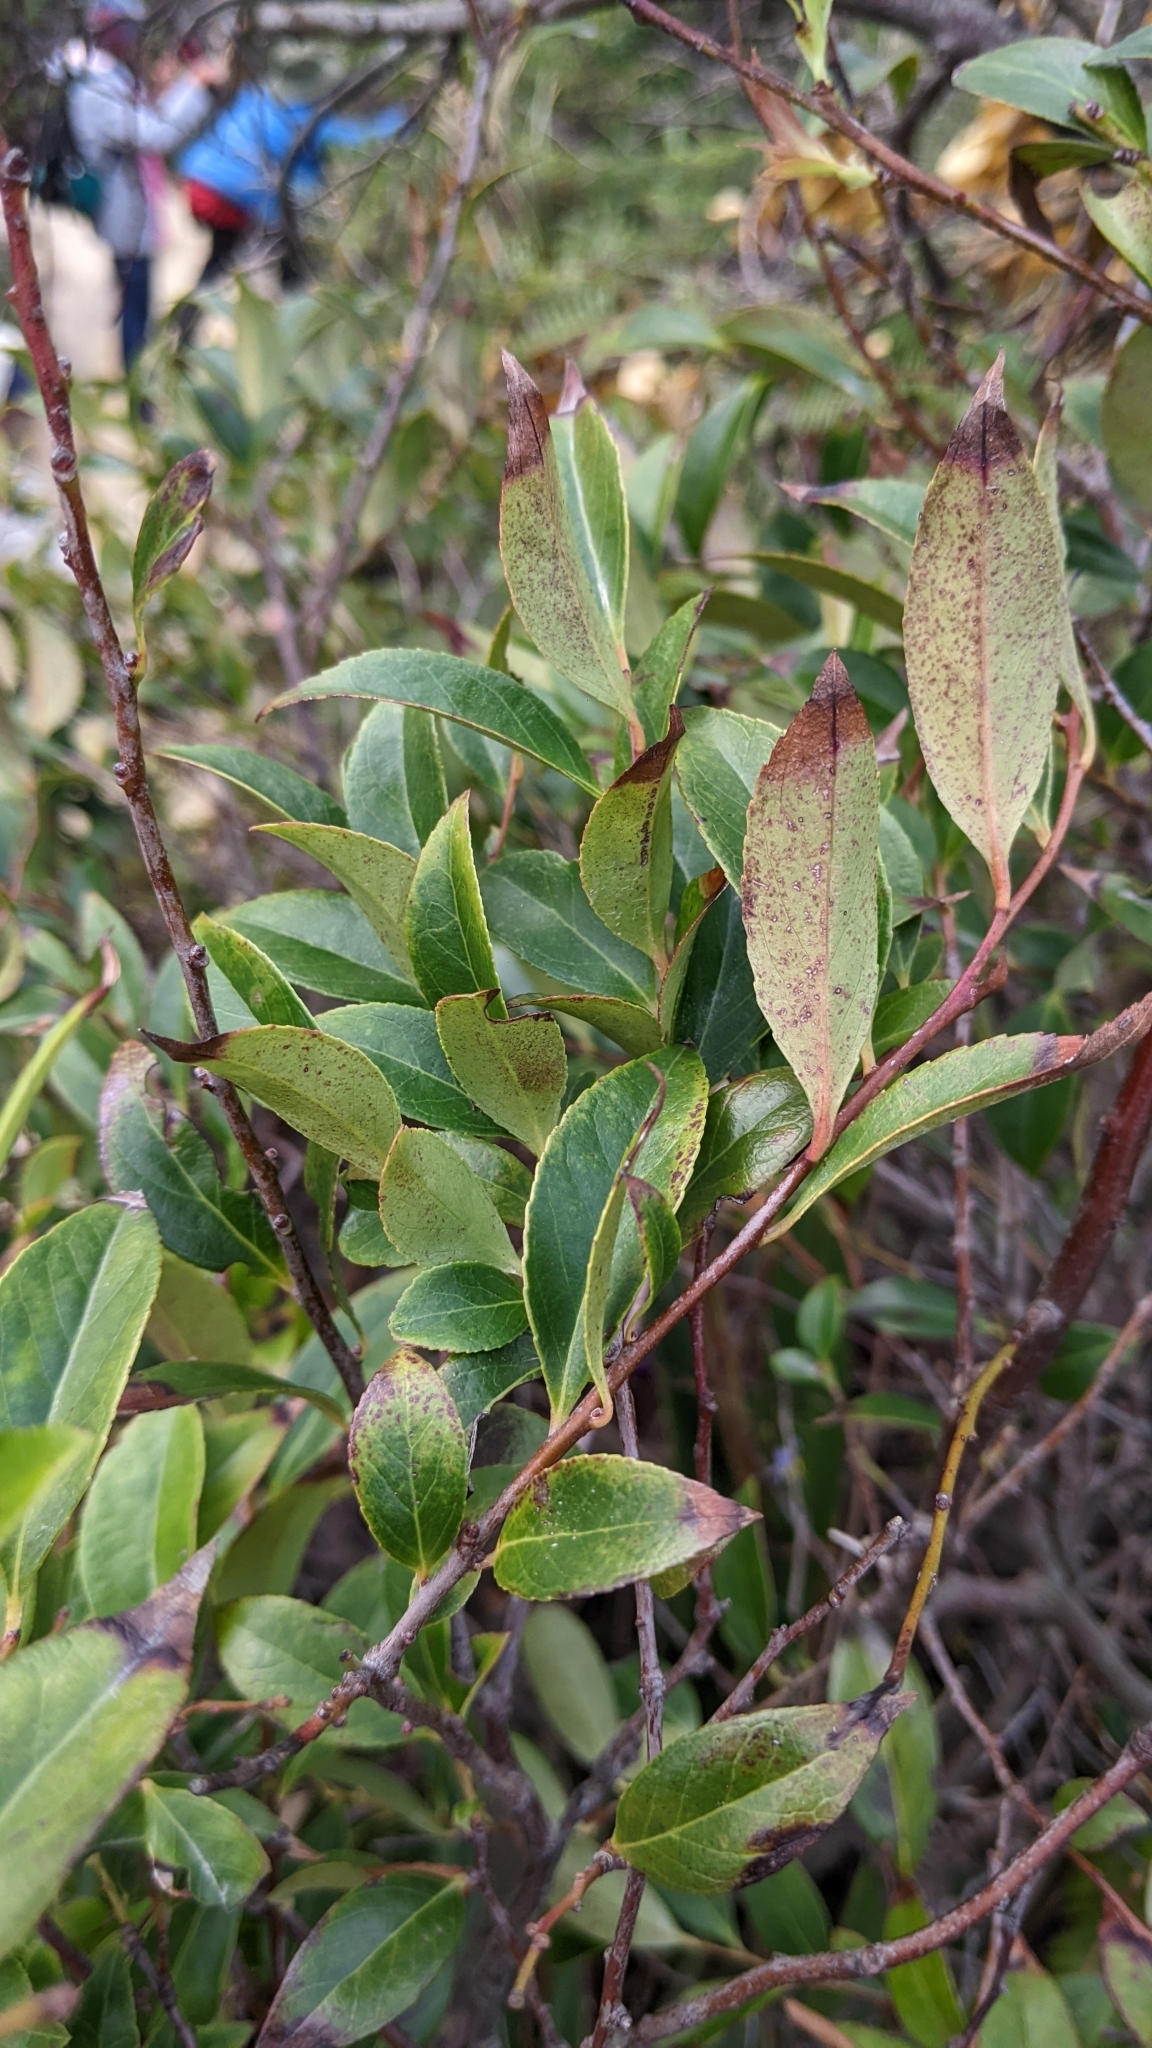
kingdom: Plantae
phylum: Tracheophyta
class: Magnoliopsida
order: Ericales
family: Ericaceae
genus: Vaccinium
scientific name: Vaccinium bracteatum
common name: Sea bilberry
